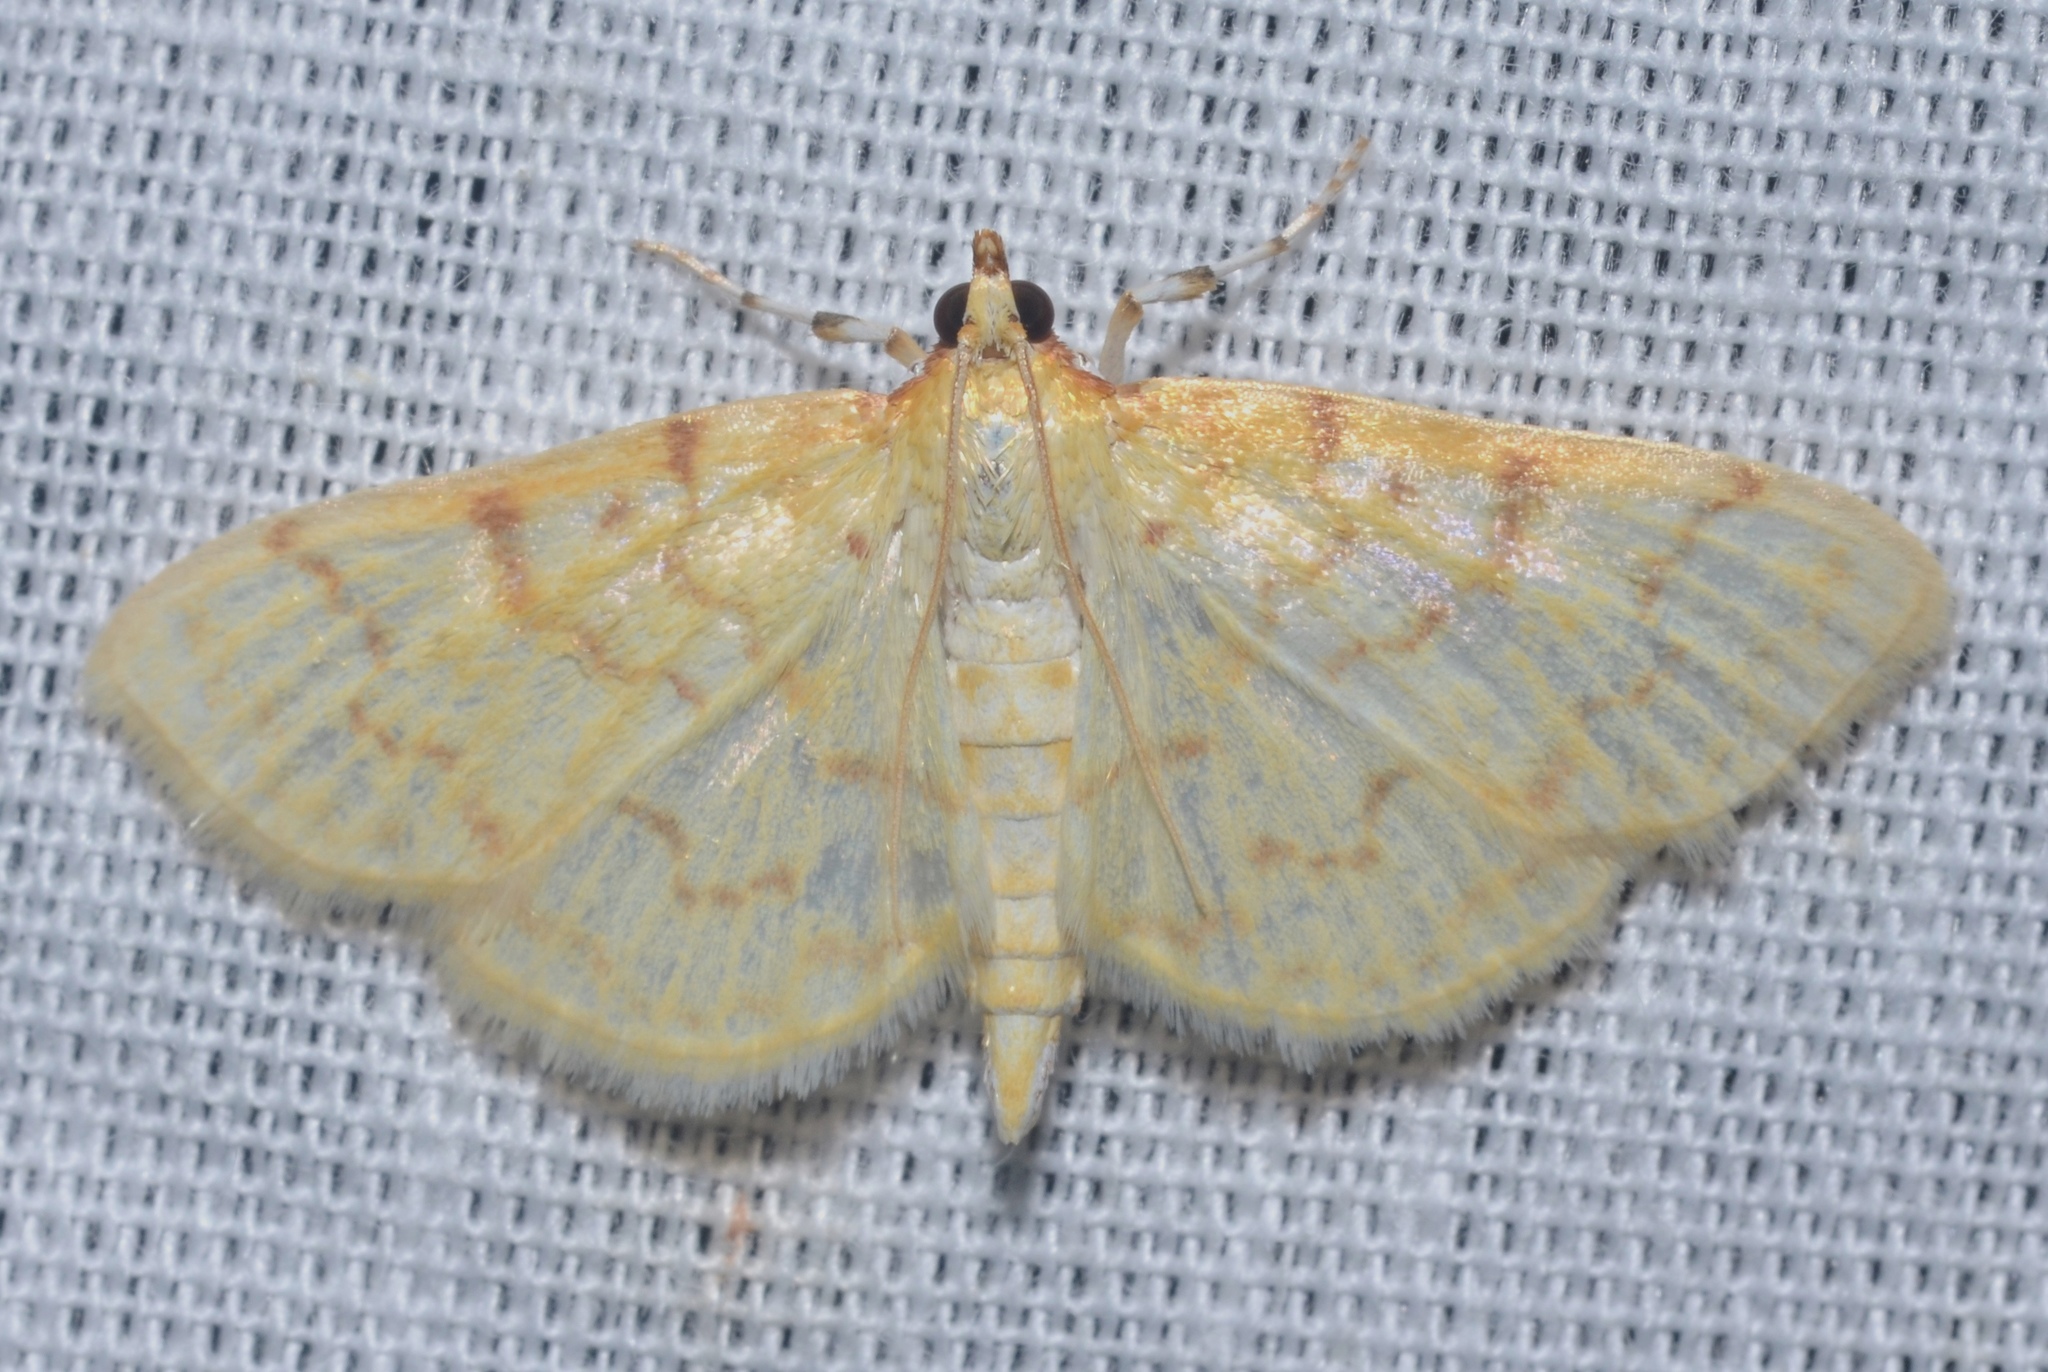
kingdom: Animalia
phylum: Arthropoda
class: Insecta
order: Lepidoptera
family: Crambidae
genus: Polygrammodes
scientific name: Polygrammodes flavidalis
